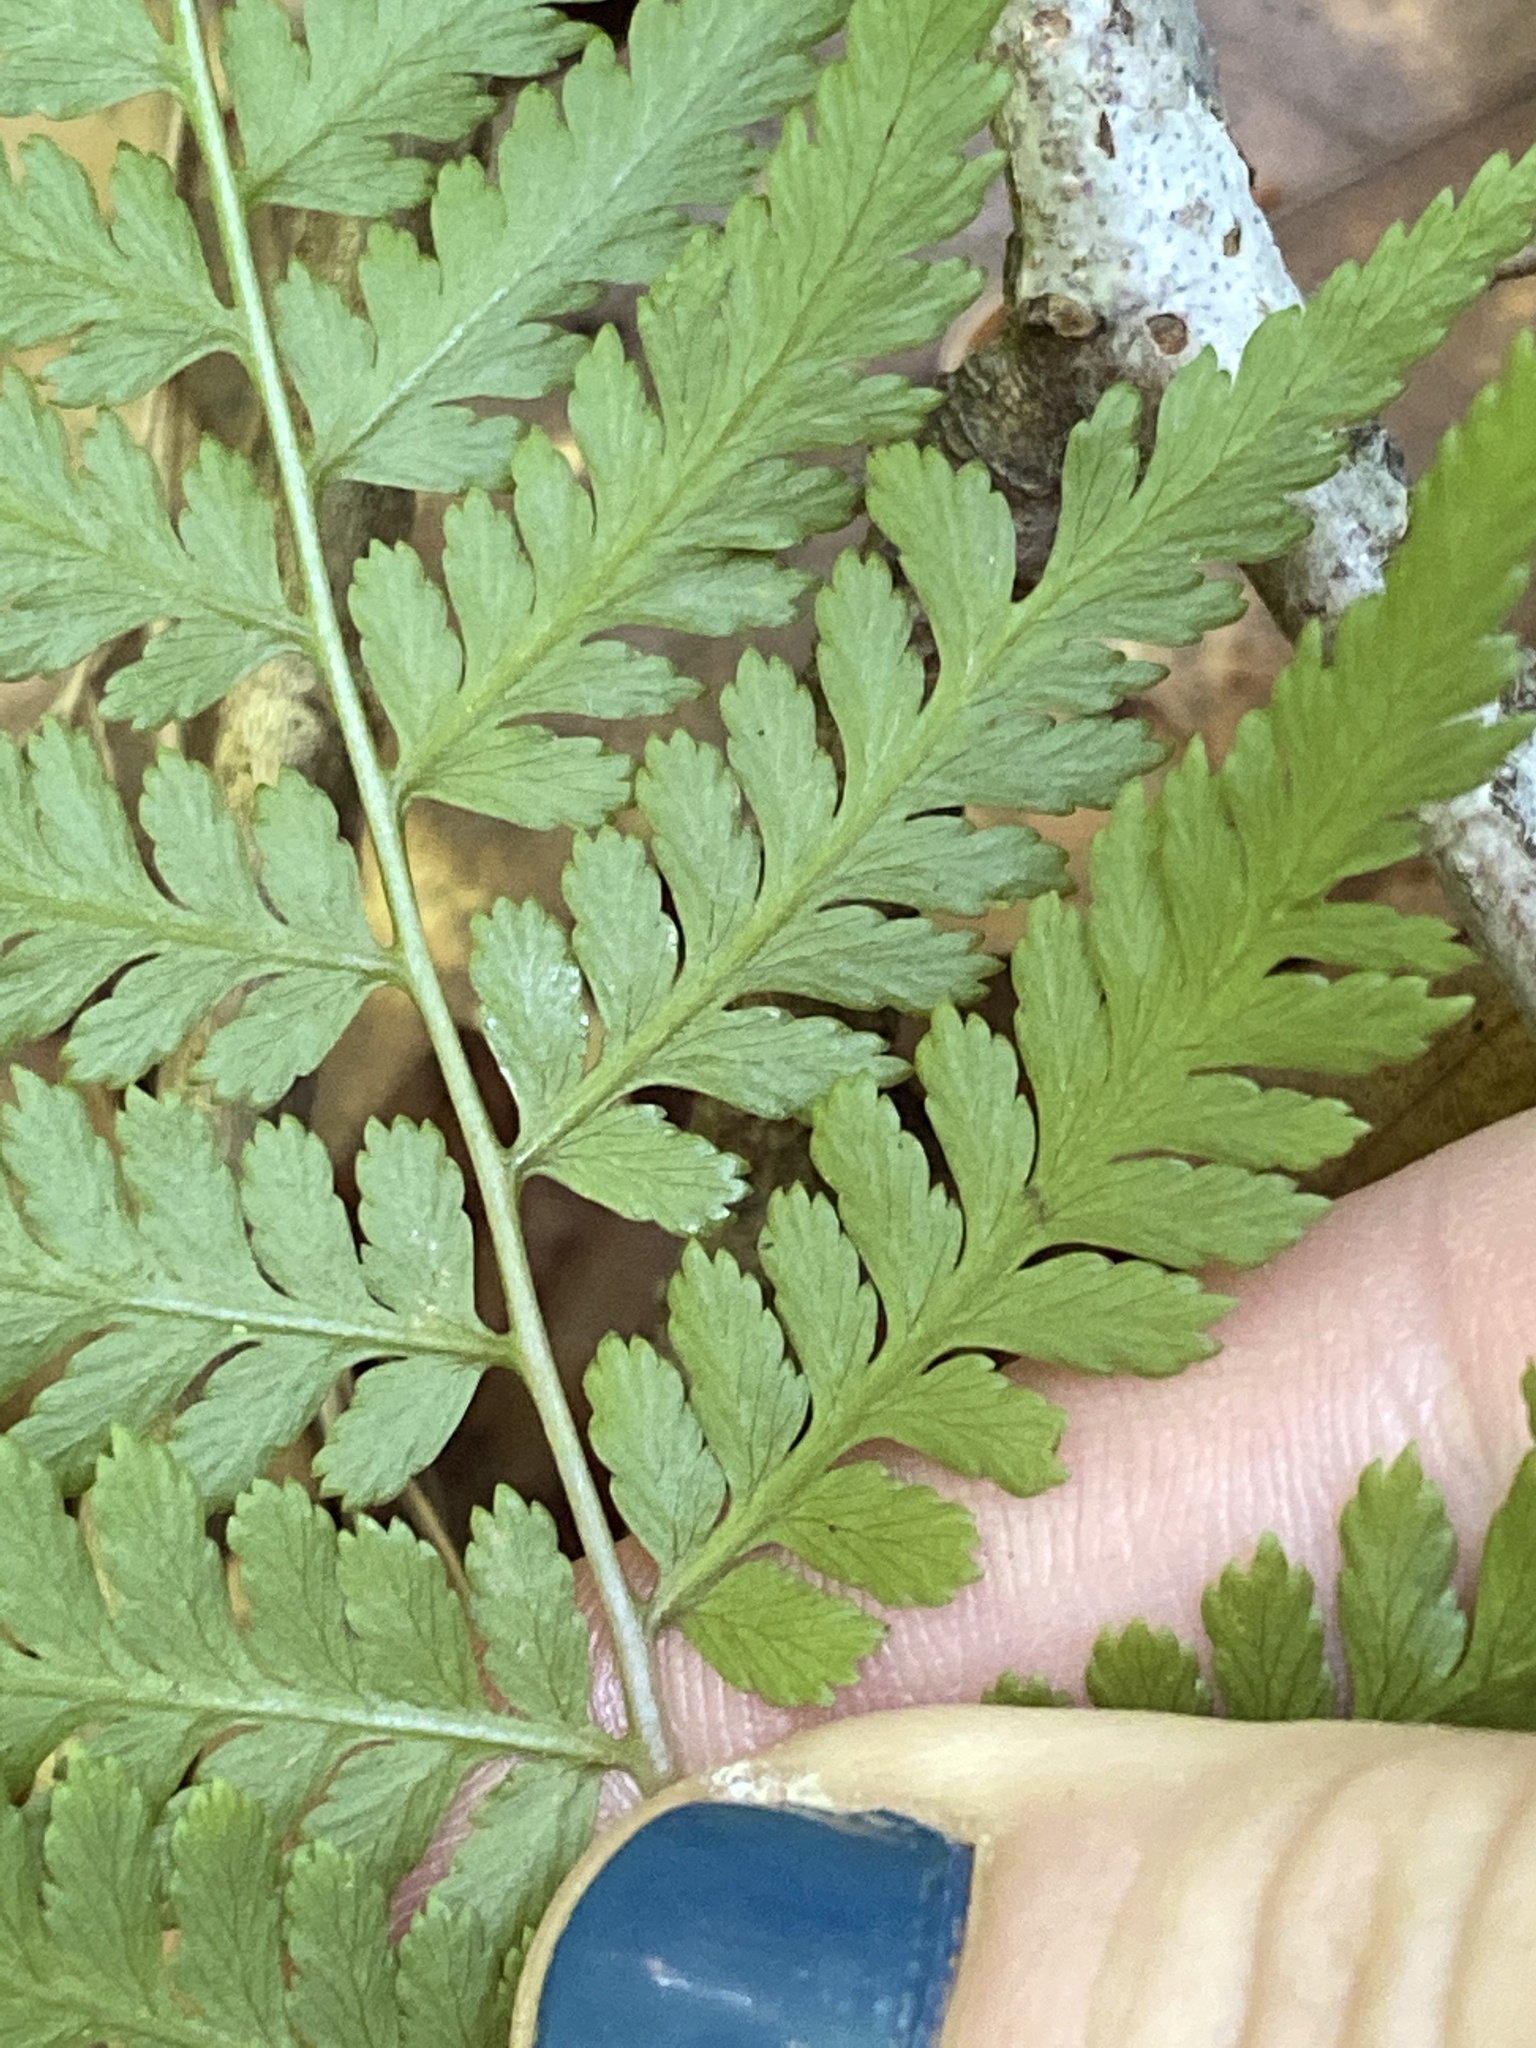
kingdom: Plantae
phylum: Tracheophyta
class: Polypodiopsida
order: Polypodiales
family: Athyriaceae
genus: Athyrium
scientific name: Athyrium asplenioides
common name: Southern lady fern
